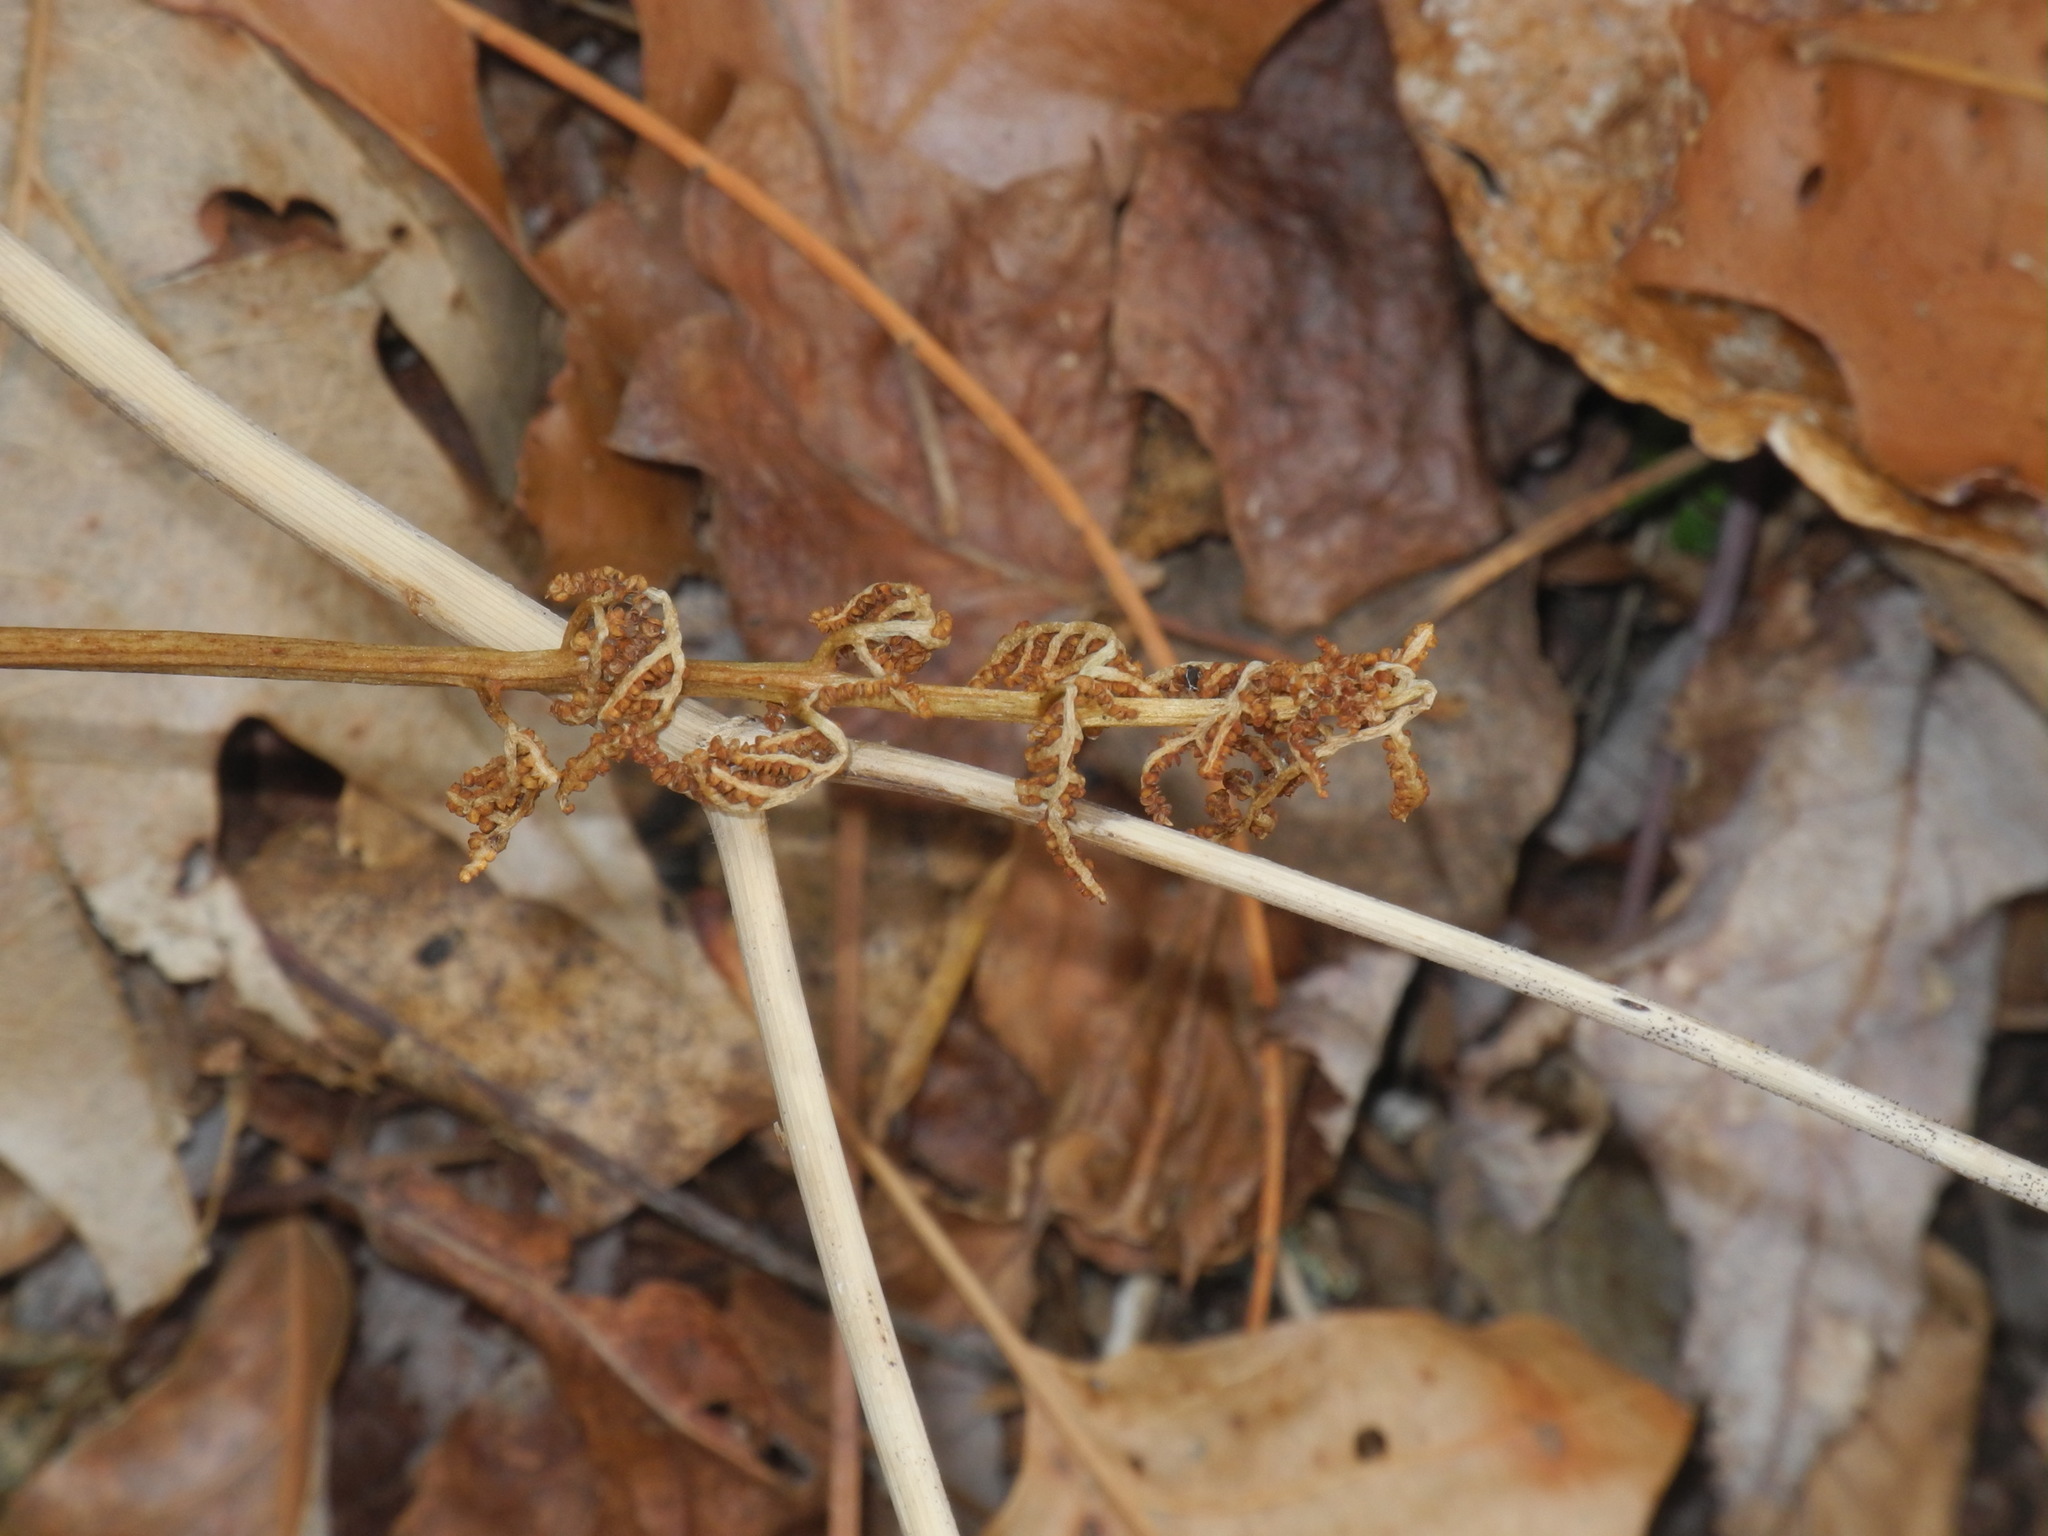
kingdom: Plantae
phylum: Tracheophyta
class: Polypodiopsida
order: Ophioglossales
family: Ophioglossaceae
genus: Sceptridium
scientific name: Sceptridium dissectum
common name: Cut-leaved grapefern
